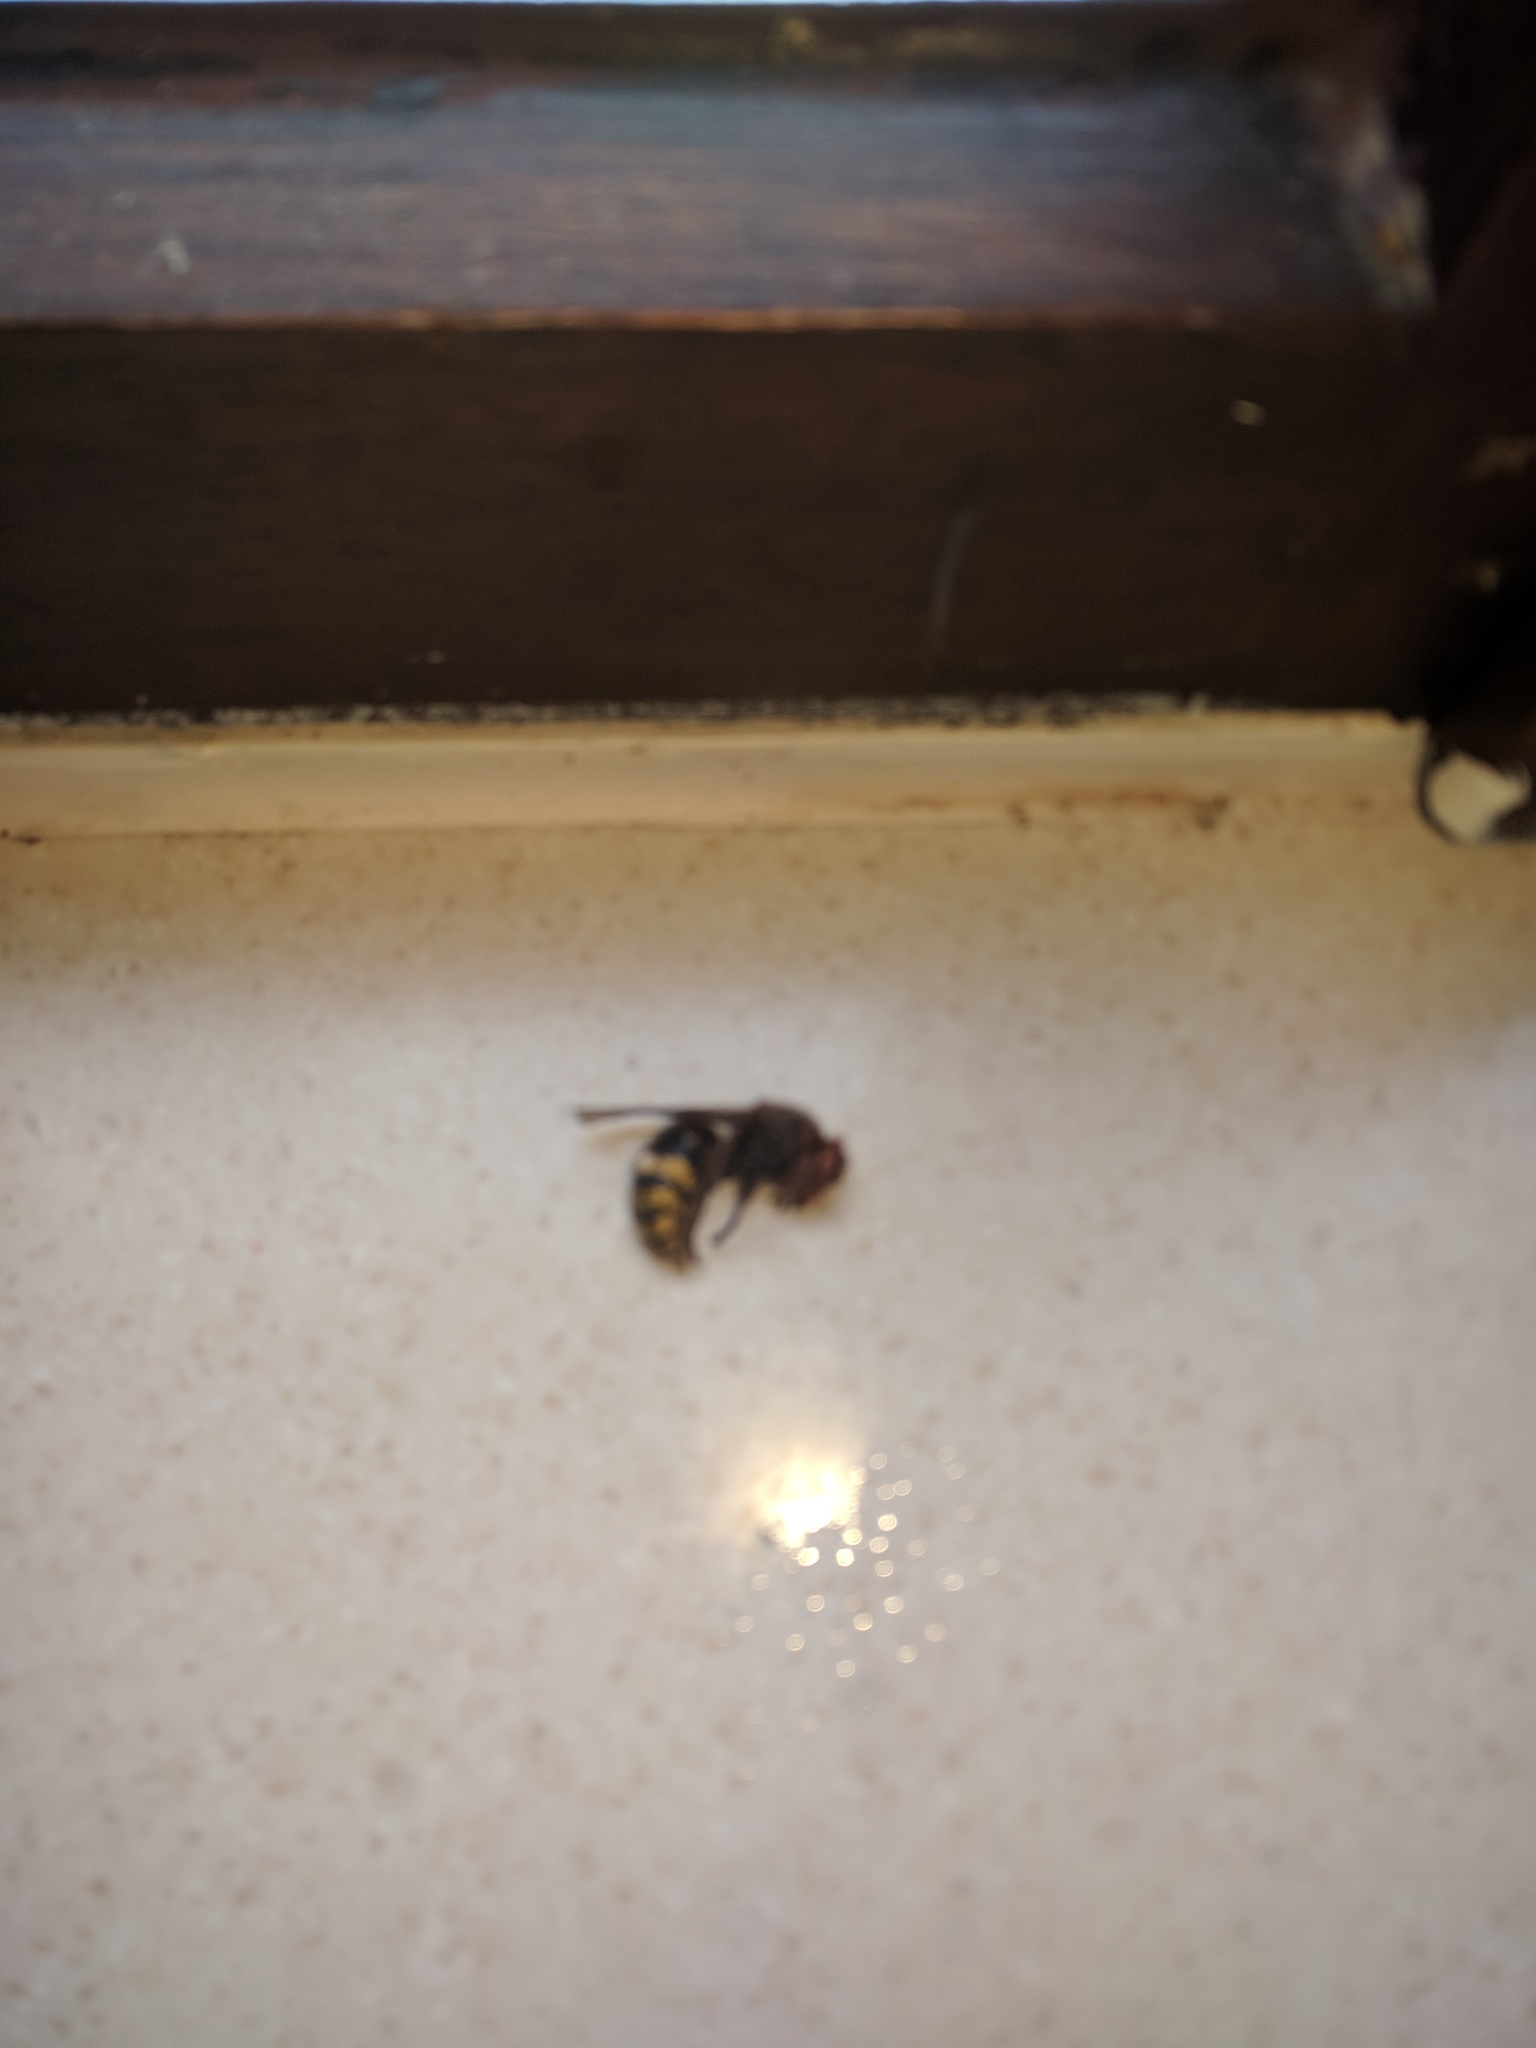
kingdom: Animalia
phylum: Arthropoda
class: Insecta
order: Hymenoptera
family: Vespidae
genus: Vespa
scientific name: Vespa crabro
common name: Hornet
